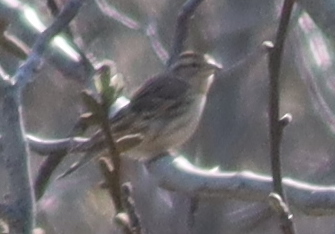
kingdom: Animalia
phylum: Chordata
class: Aves
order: Passeriformes
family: Passeridae
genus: Petronia
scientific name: Petronia petronia
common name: Rock sparrow
